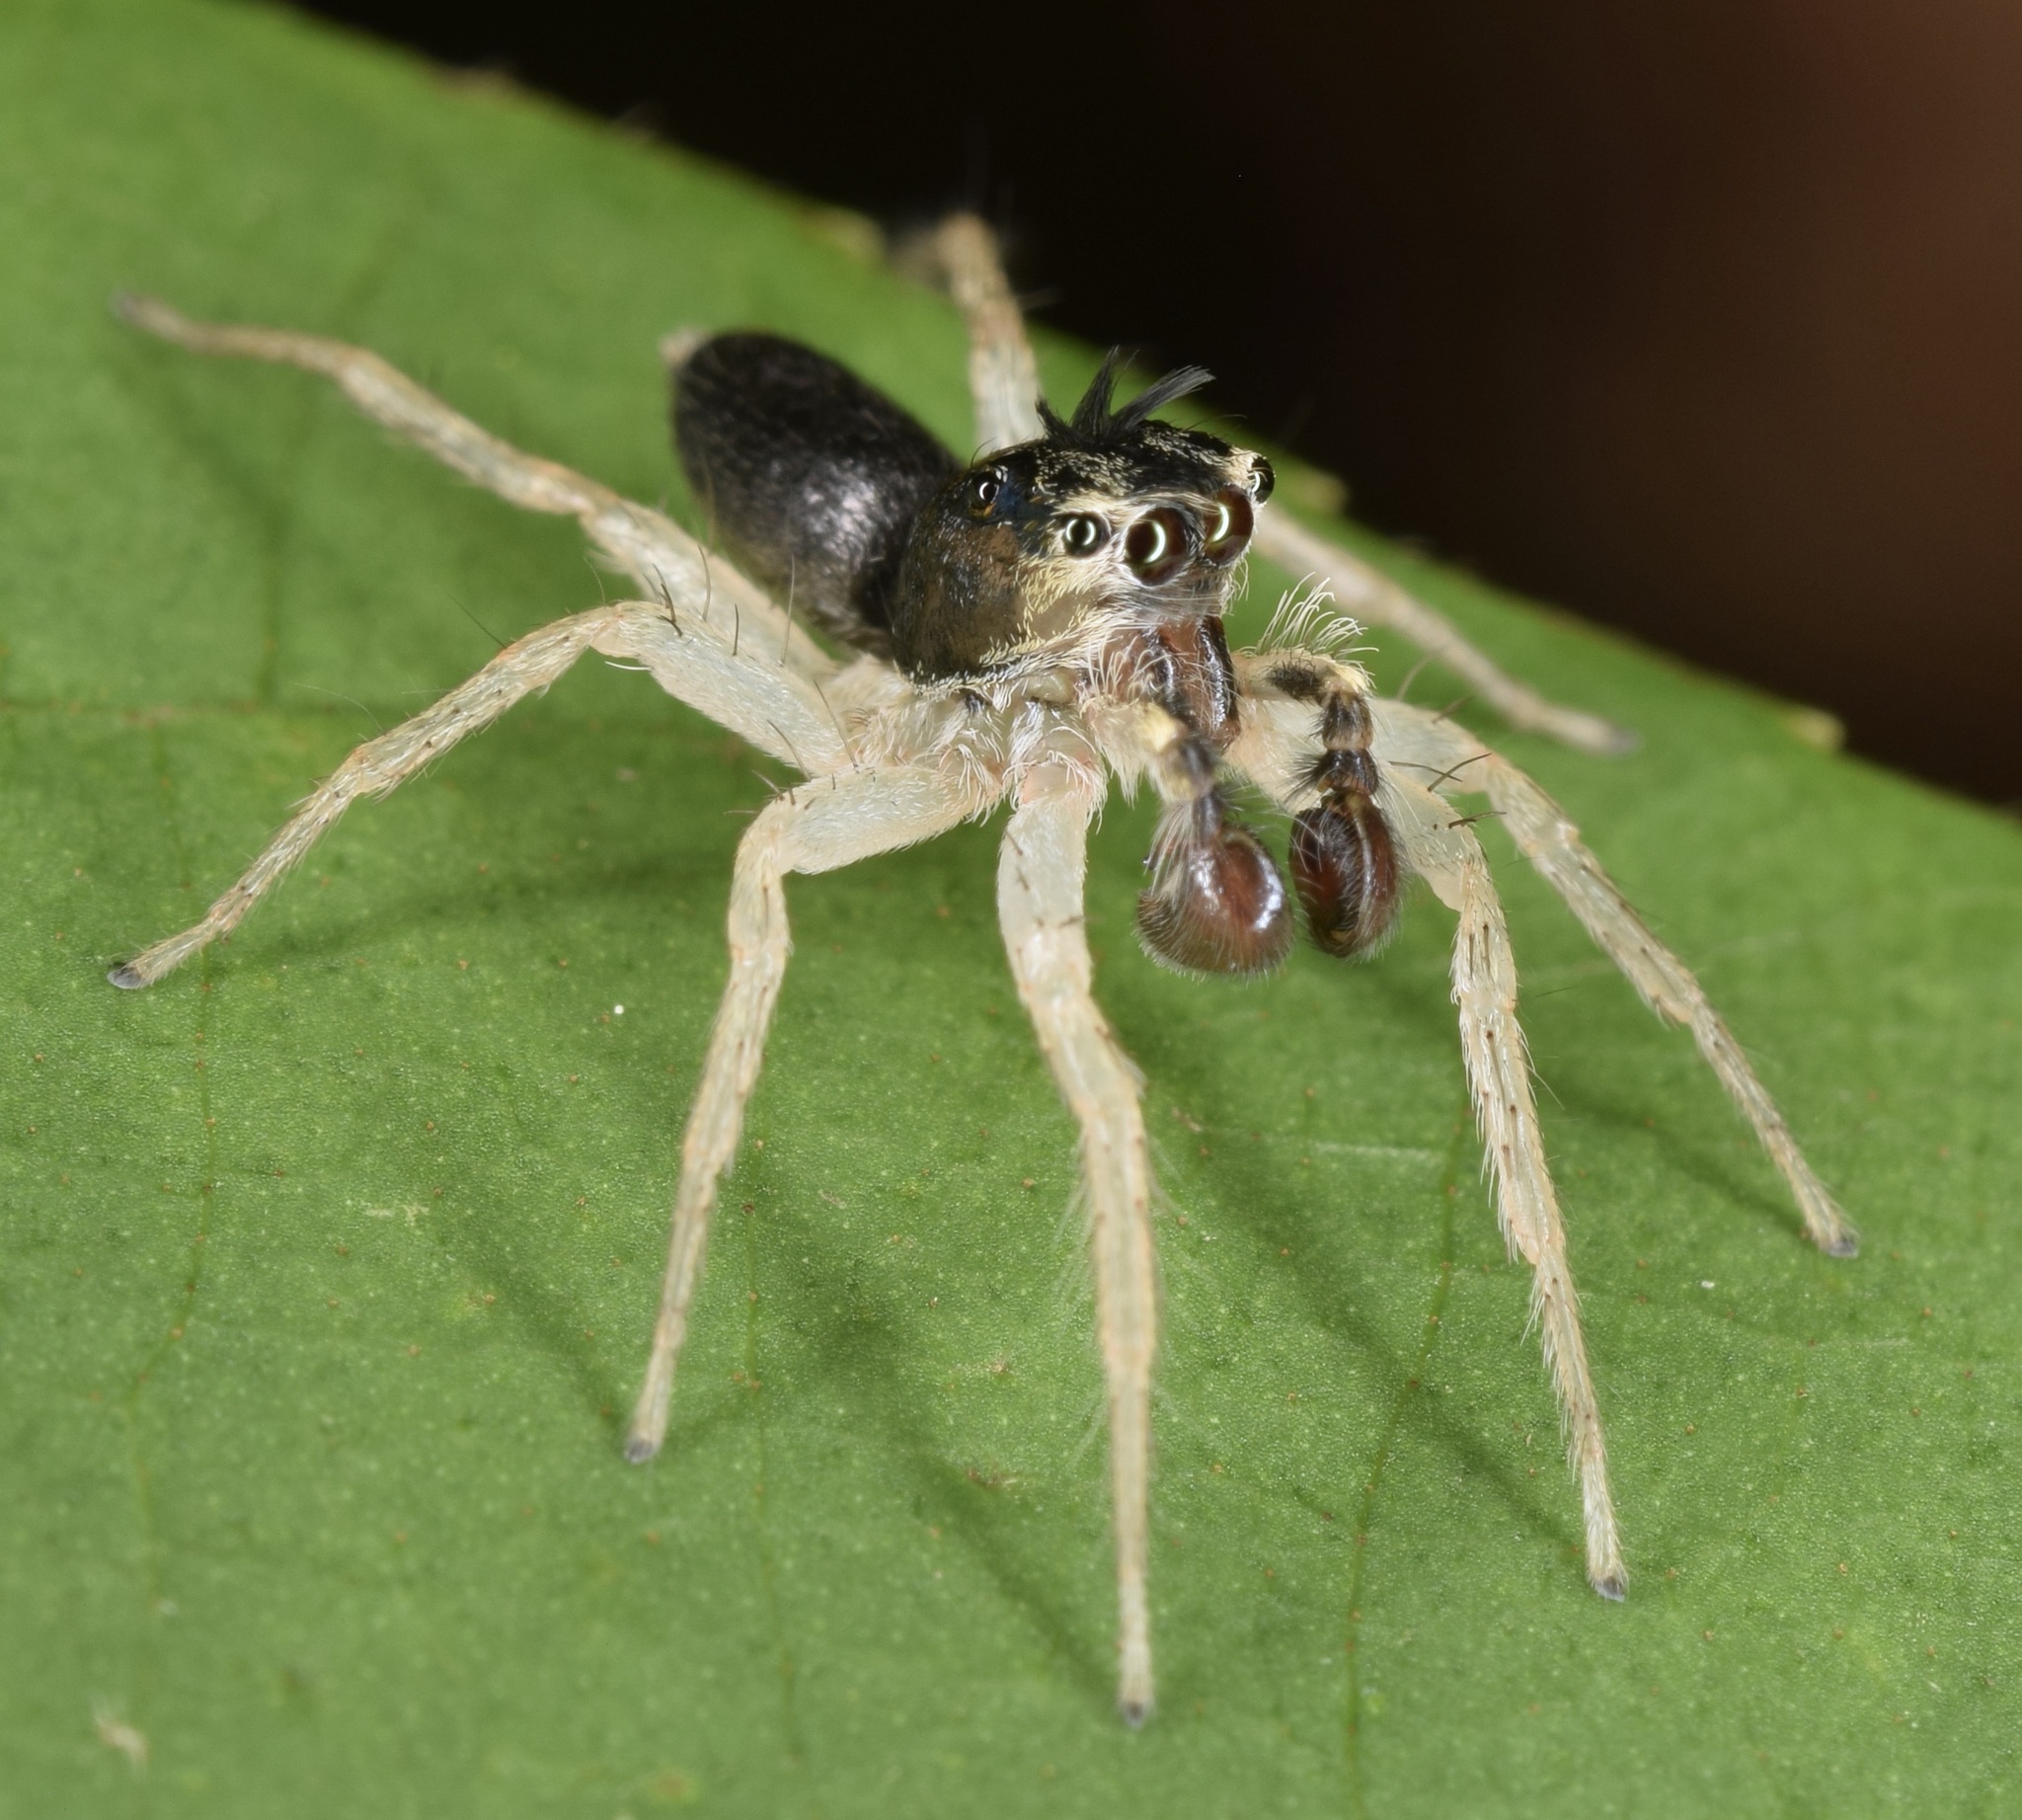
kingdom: Animalia
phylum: Arthropoda
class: Arachnida
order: Araneae
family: Salticidae
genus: Maevia
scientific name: Maevia expansa
